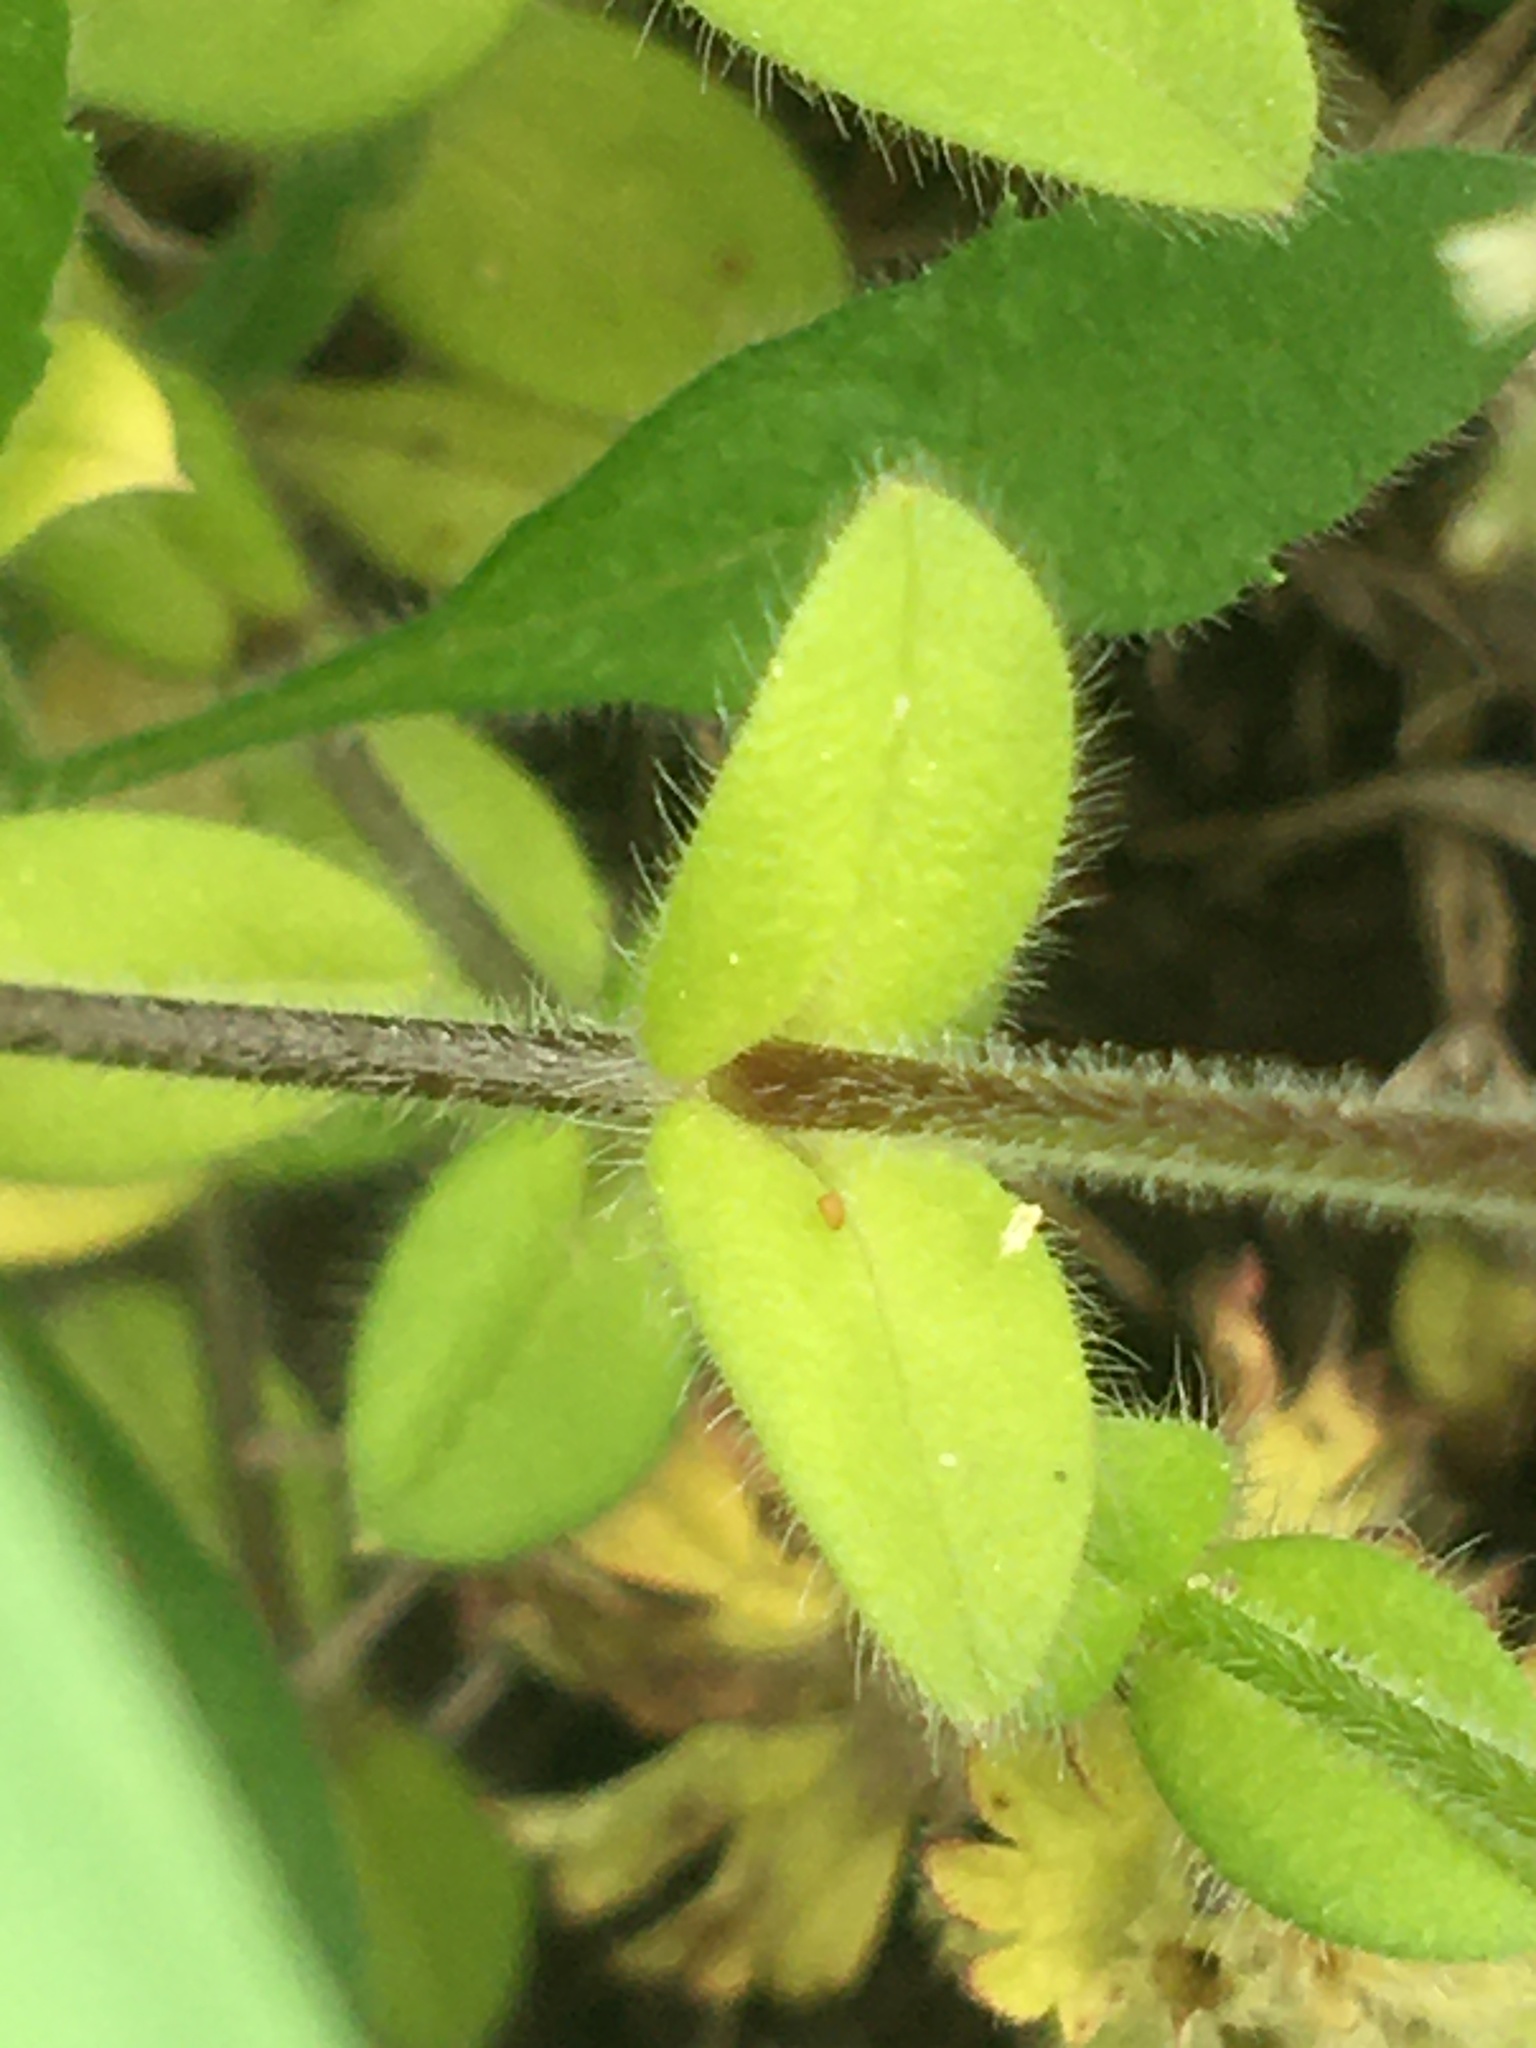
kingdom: Plantae
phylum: Tracheophyta
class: Magnoliopsida
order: Caryophyllales
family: Caryophyllaceae
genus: Cerastium
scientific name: Cerastium glomeratum
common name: Sticky chickweed
